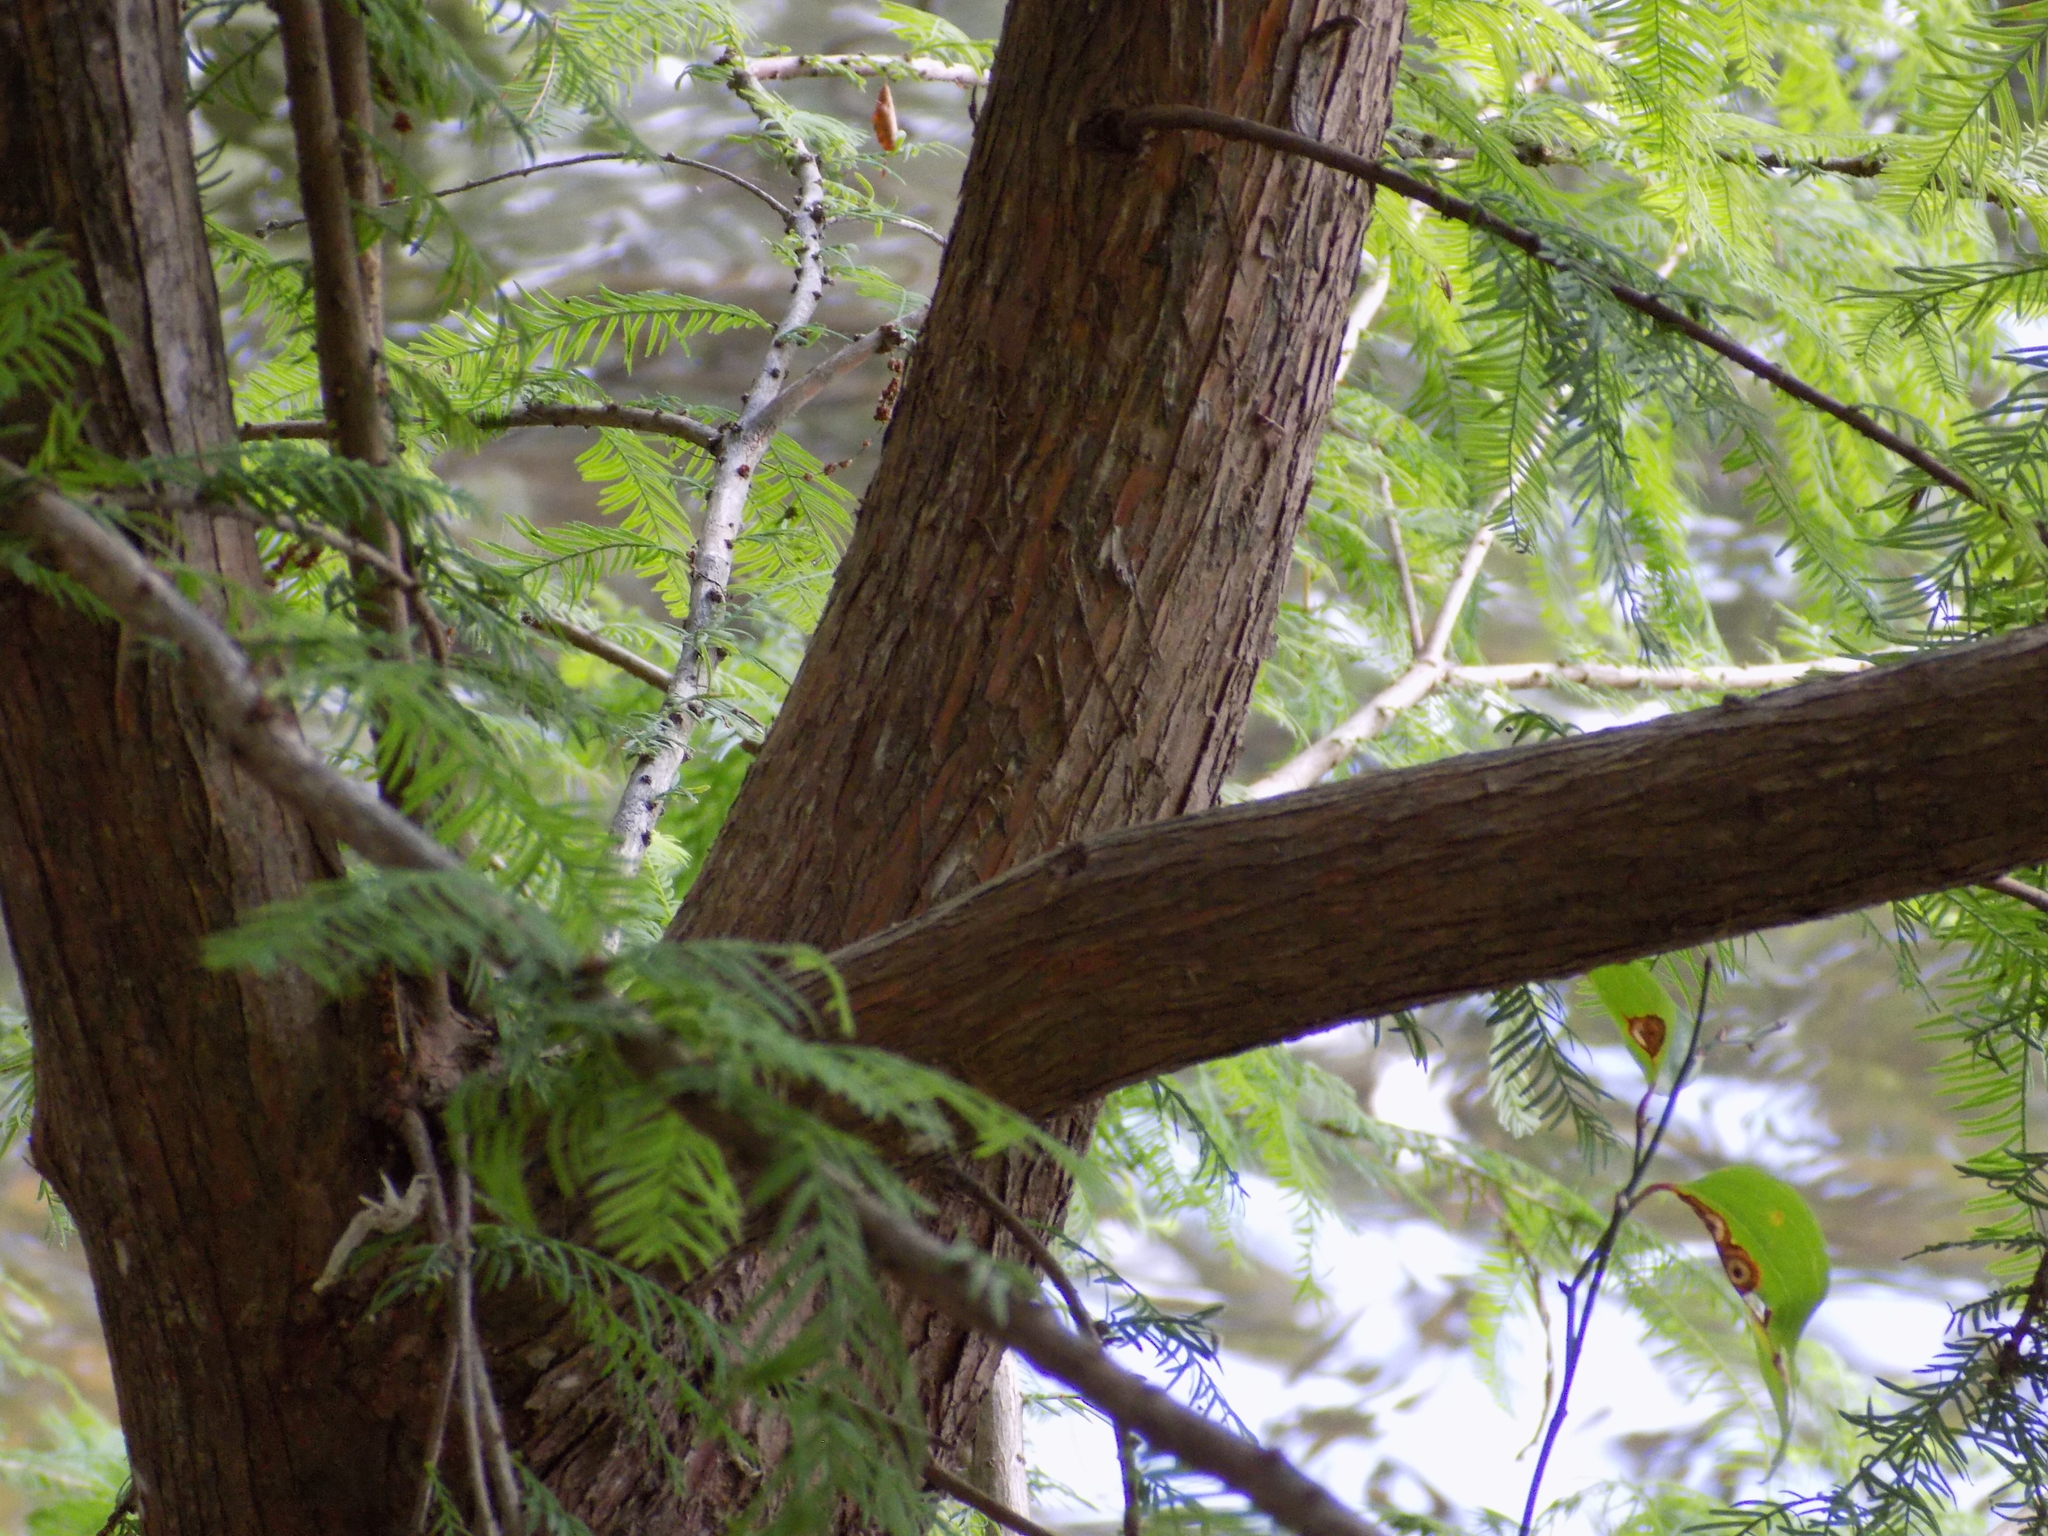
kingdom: Plantae
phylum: Tracheophyta
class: Pinopsida
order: Pinales
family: Cupressaceae
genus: Taxodium
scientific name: Taxodium distichum
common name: Bald cypress
